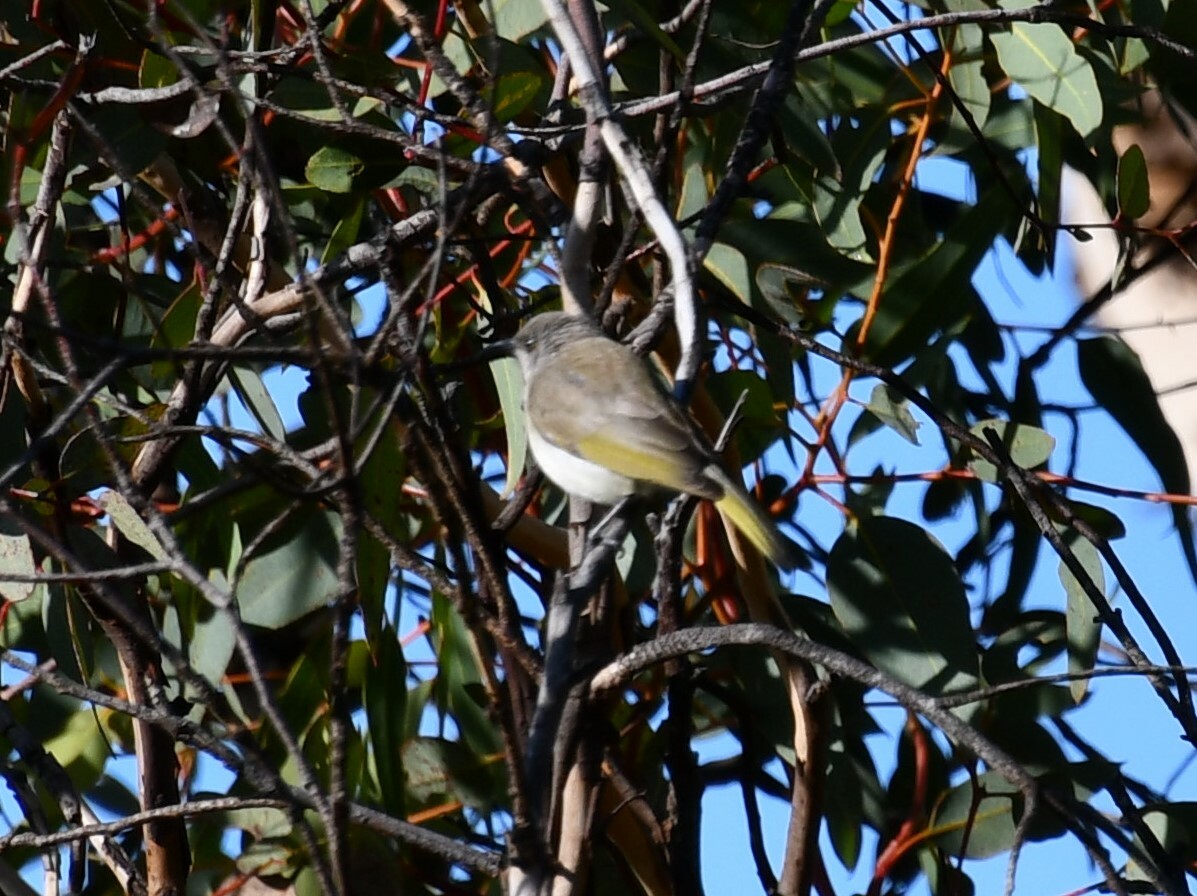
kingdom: Animalia
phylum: Chordata
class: Aves
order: Passeriformes
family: Meliphagidae
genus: Lichmera
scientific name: Lichmera indistincta
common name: Brown honeyeater
